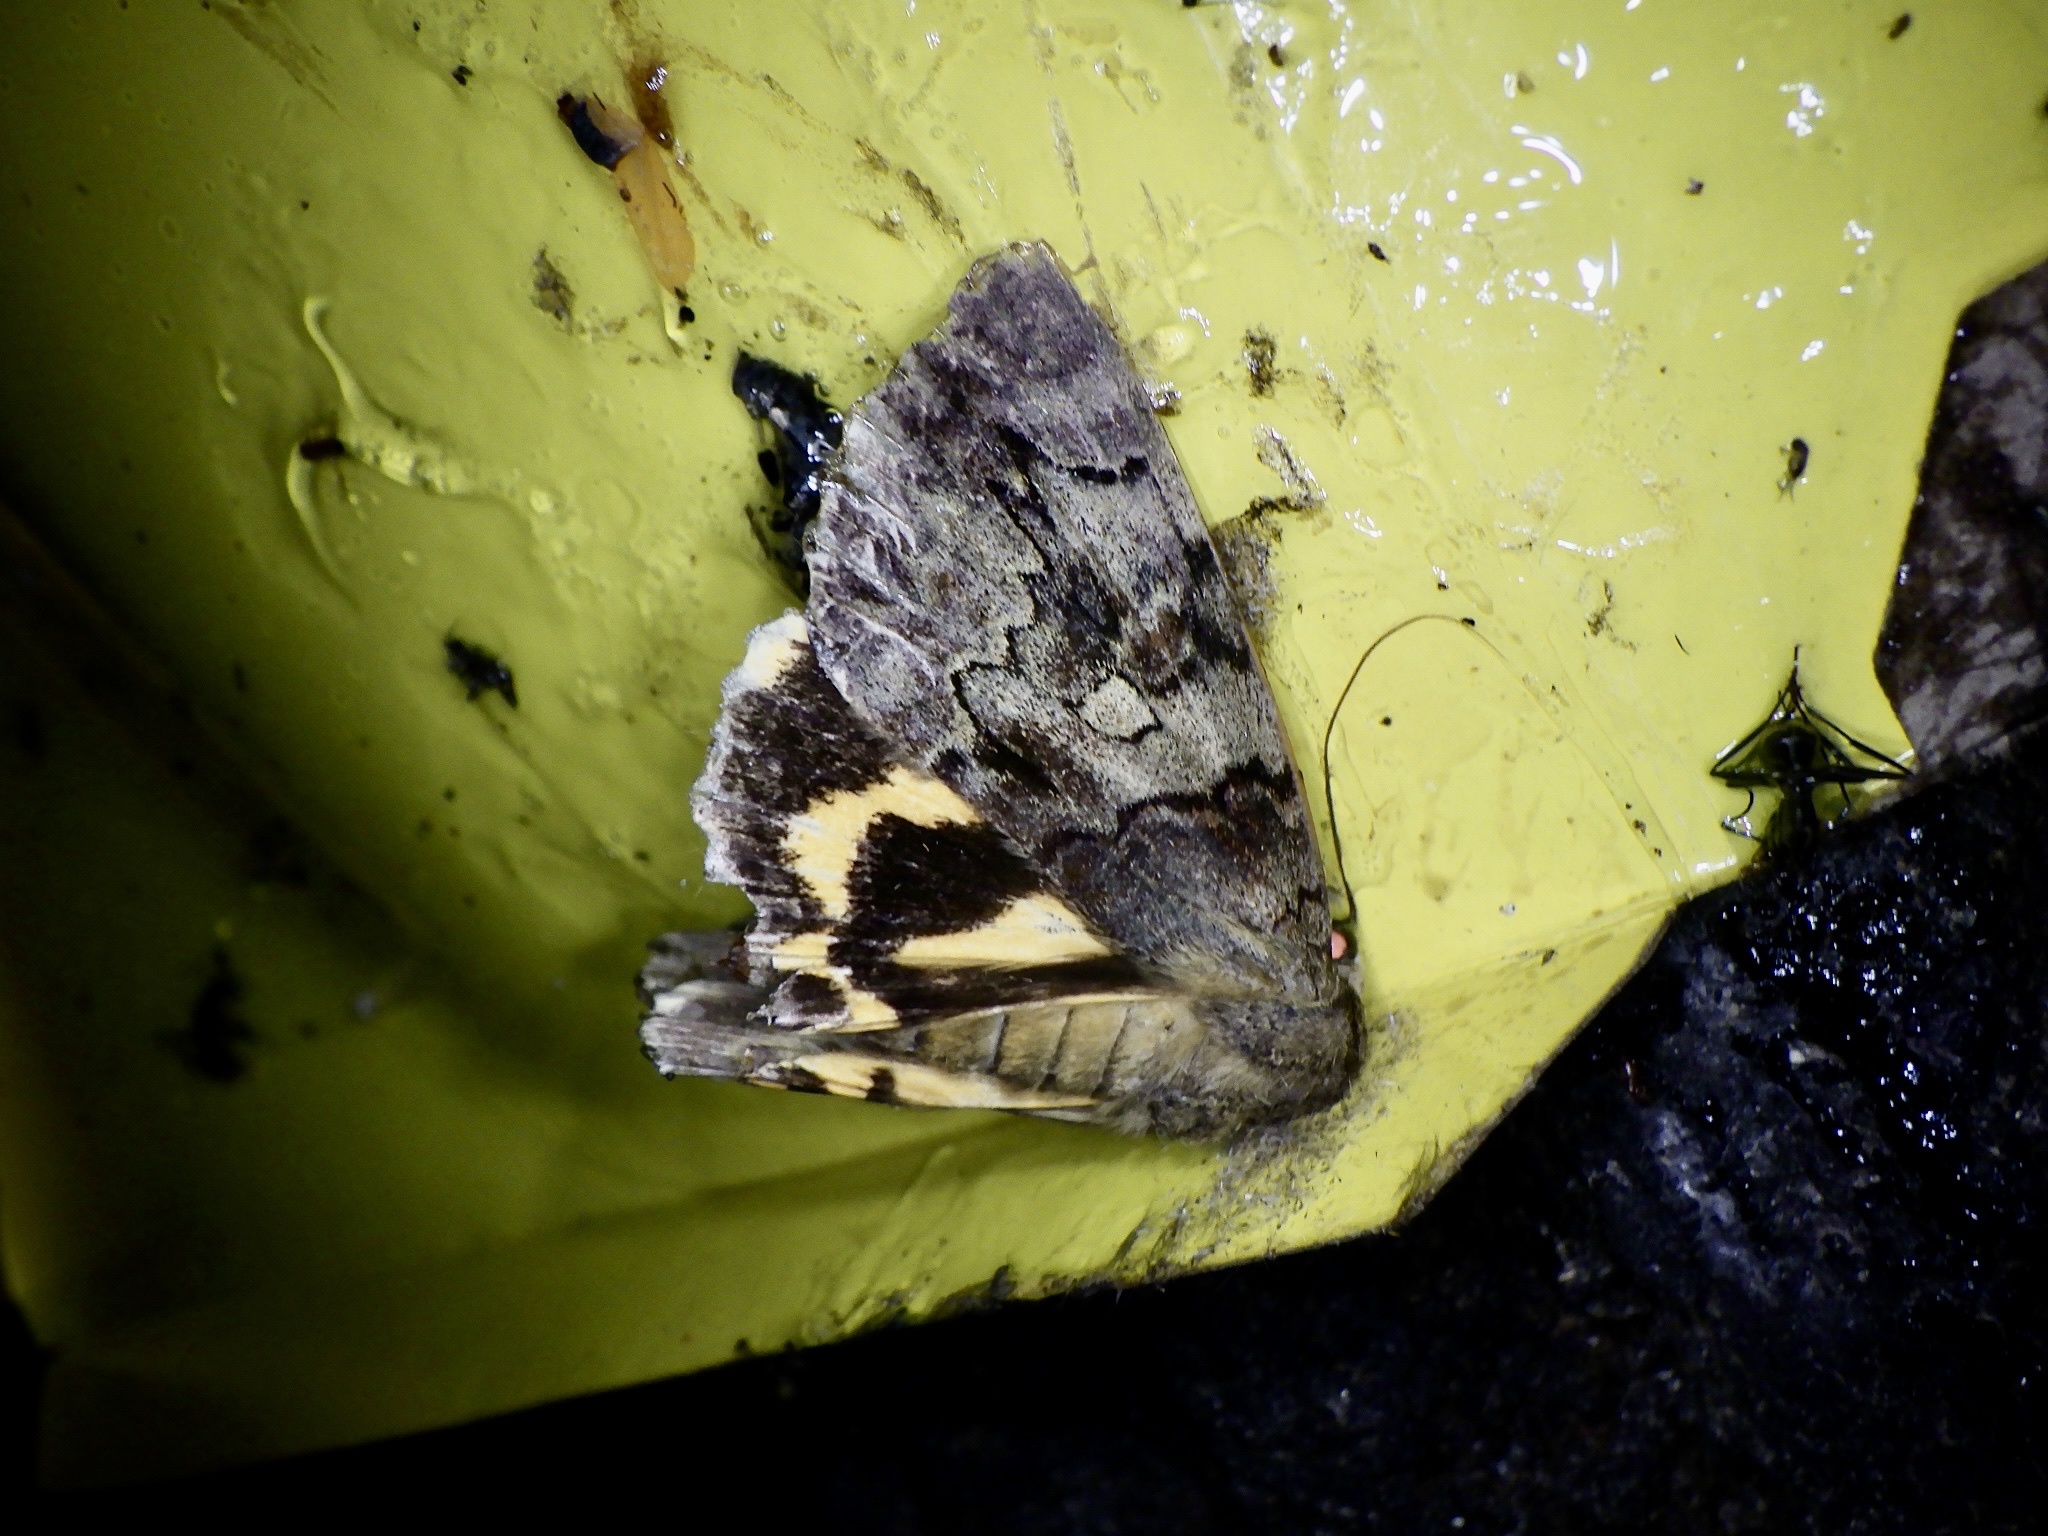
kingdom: Animalia
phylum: Arthropoda
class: Insecta
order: Lepidoptera
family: Erebidae
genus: Catocala
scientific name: Catocala patala
